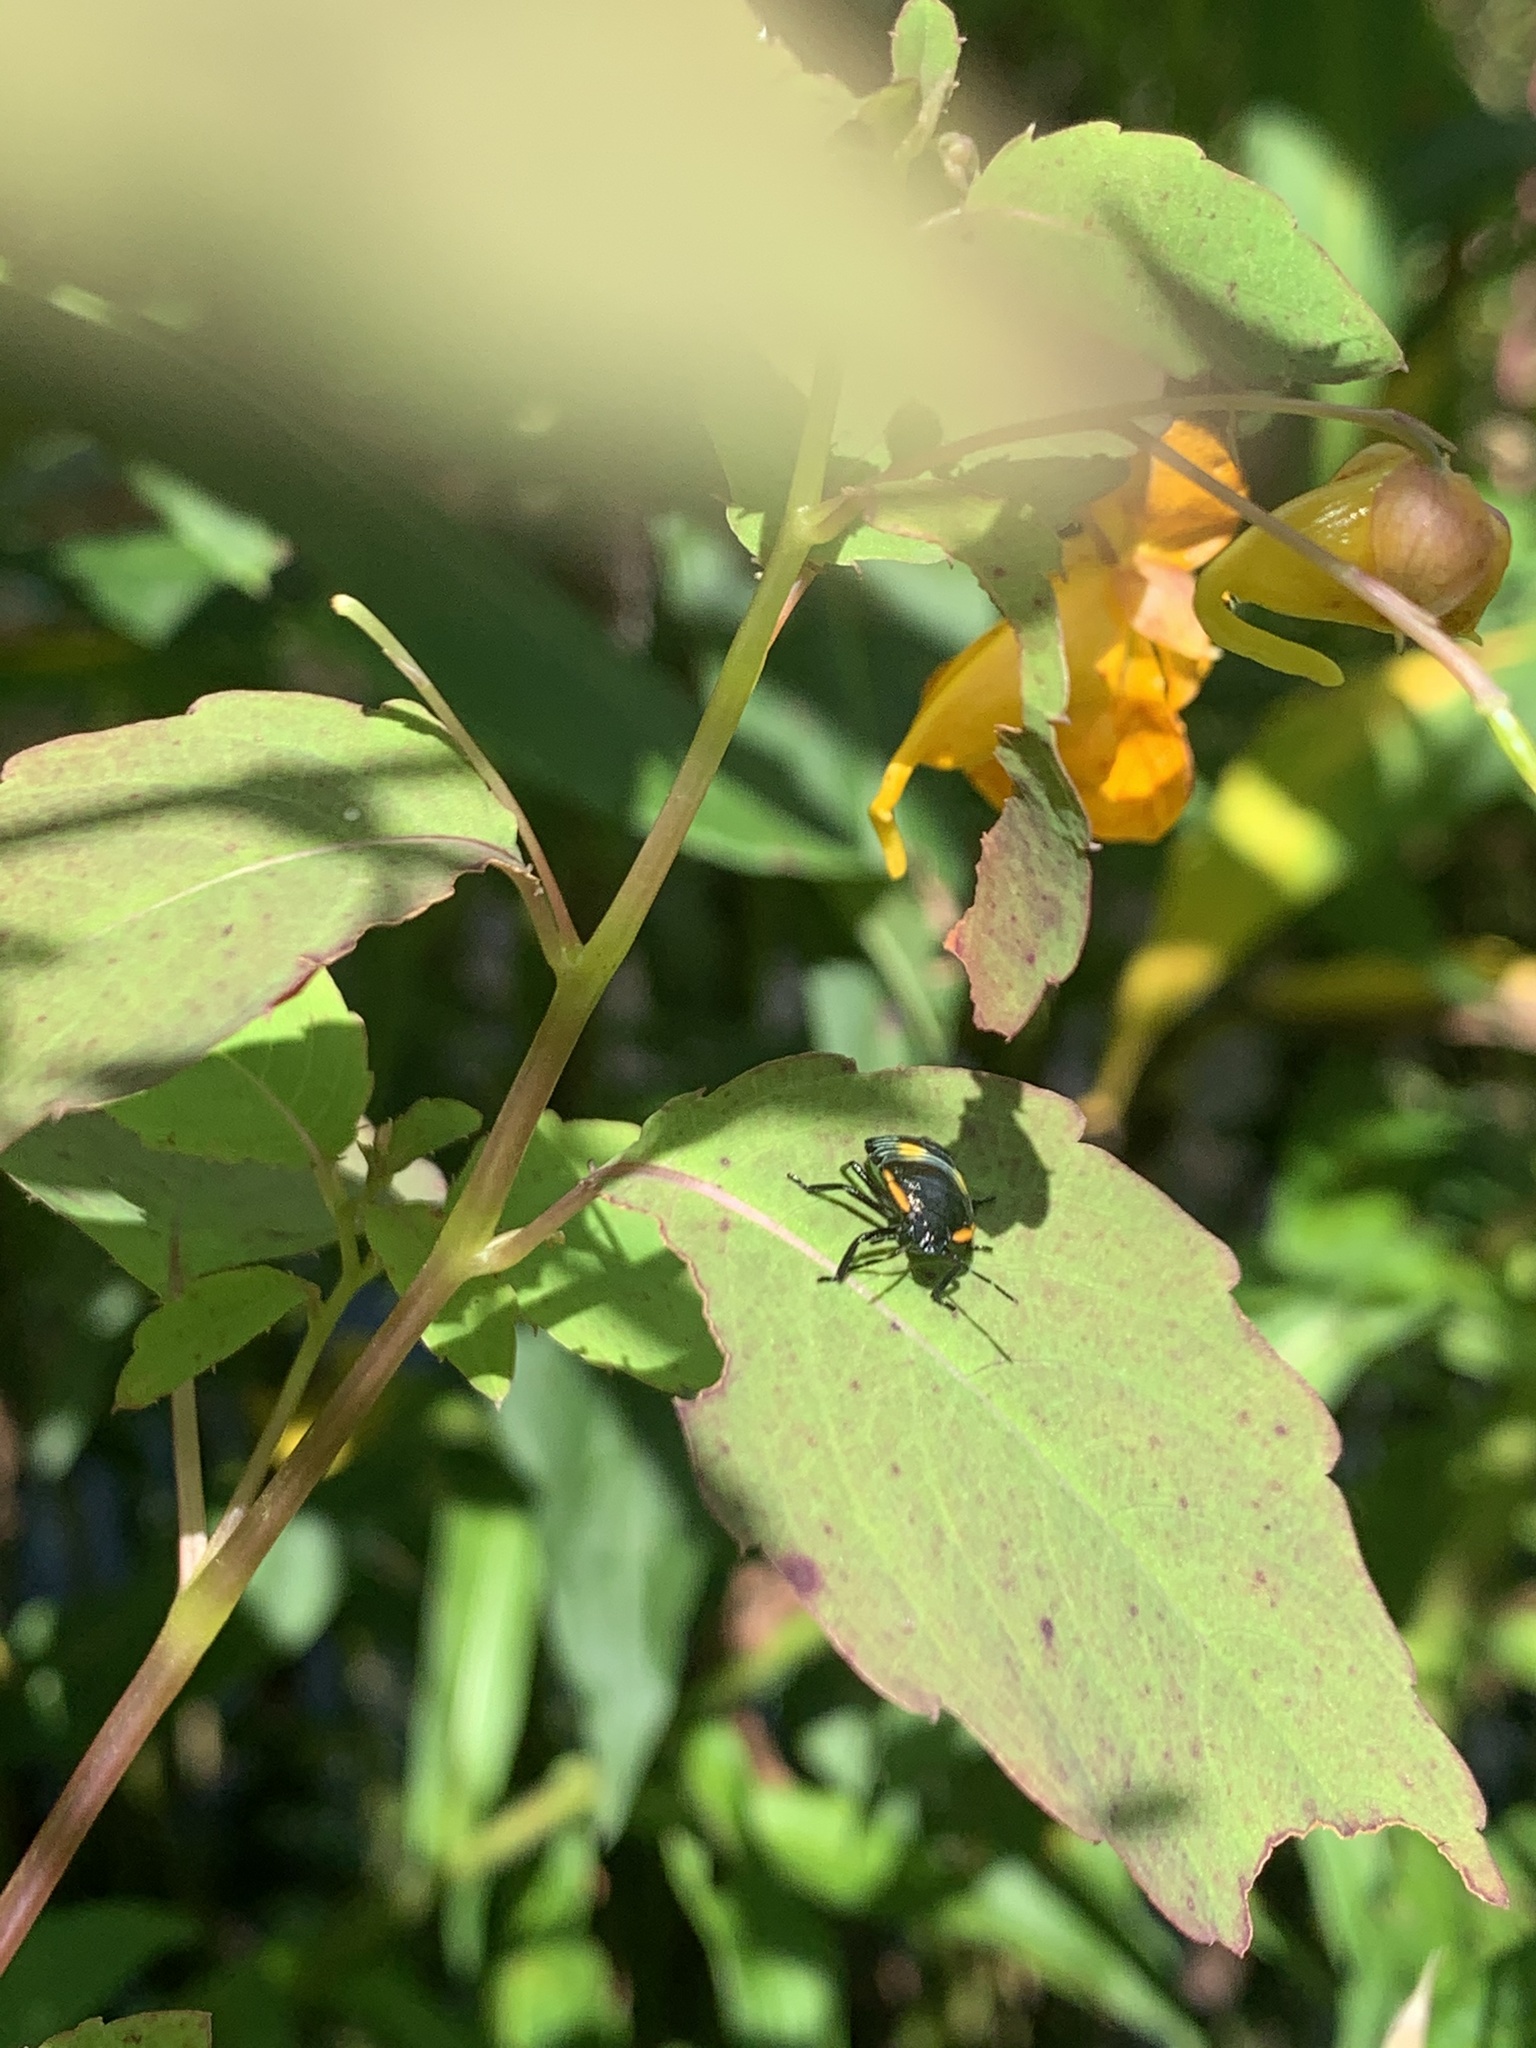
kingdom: Animalia
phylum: Arthropoda
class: Insecta
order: Hemiptera
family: Pentatomidae
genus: Chinavia
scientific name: Chinavia hilaris
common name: Green stink bug
